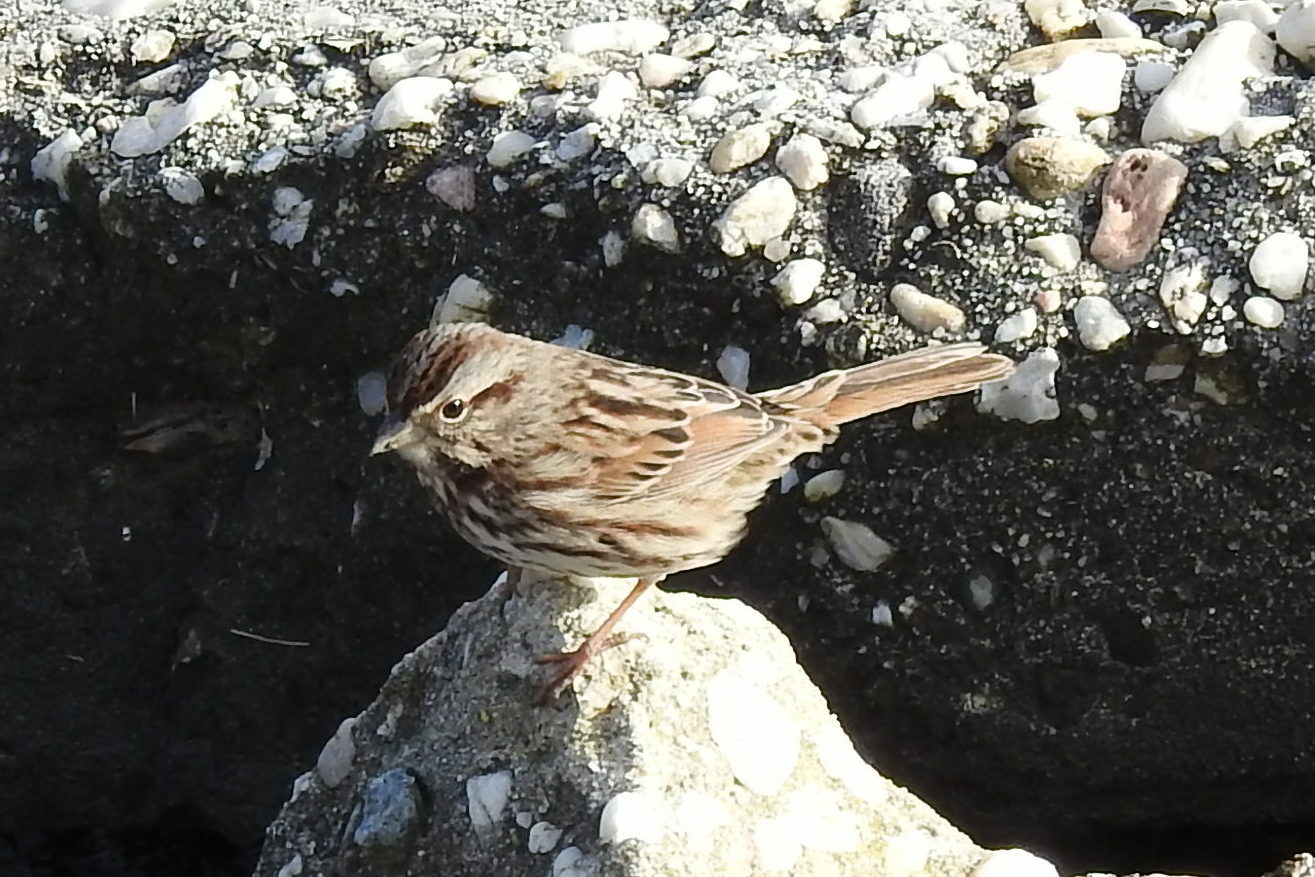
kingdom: Animalia
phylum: Chordata
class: Aves
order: Passeriformes
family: Passerellidae
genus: Melospiza
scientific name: Melospiza melodia
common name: Song sparrow
